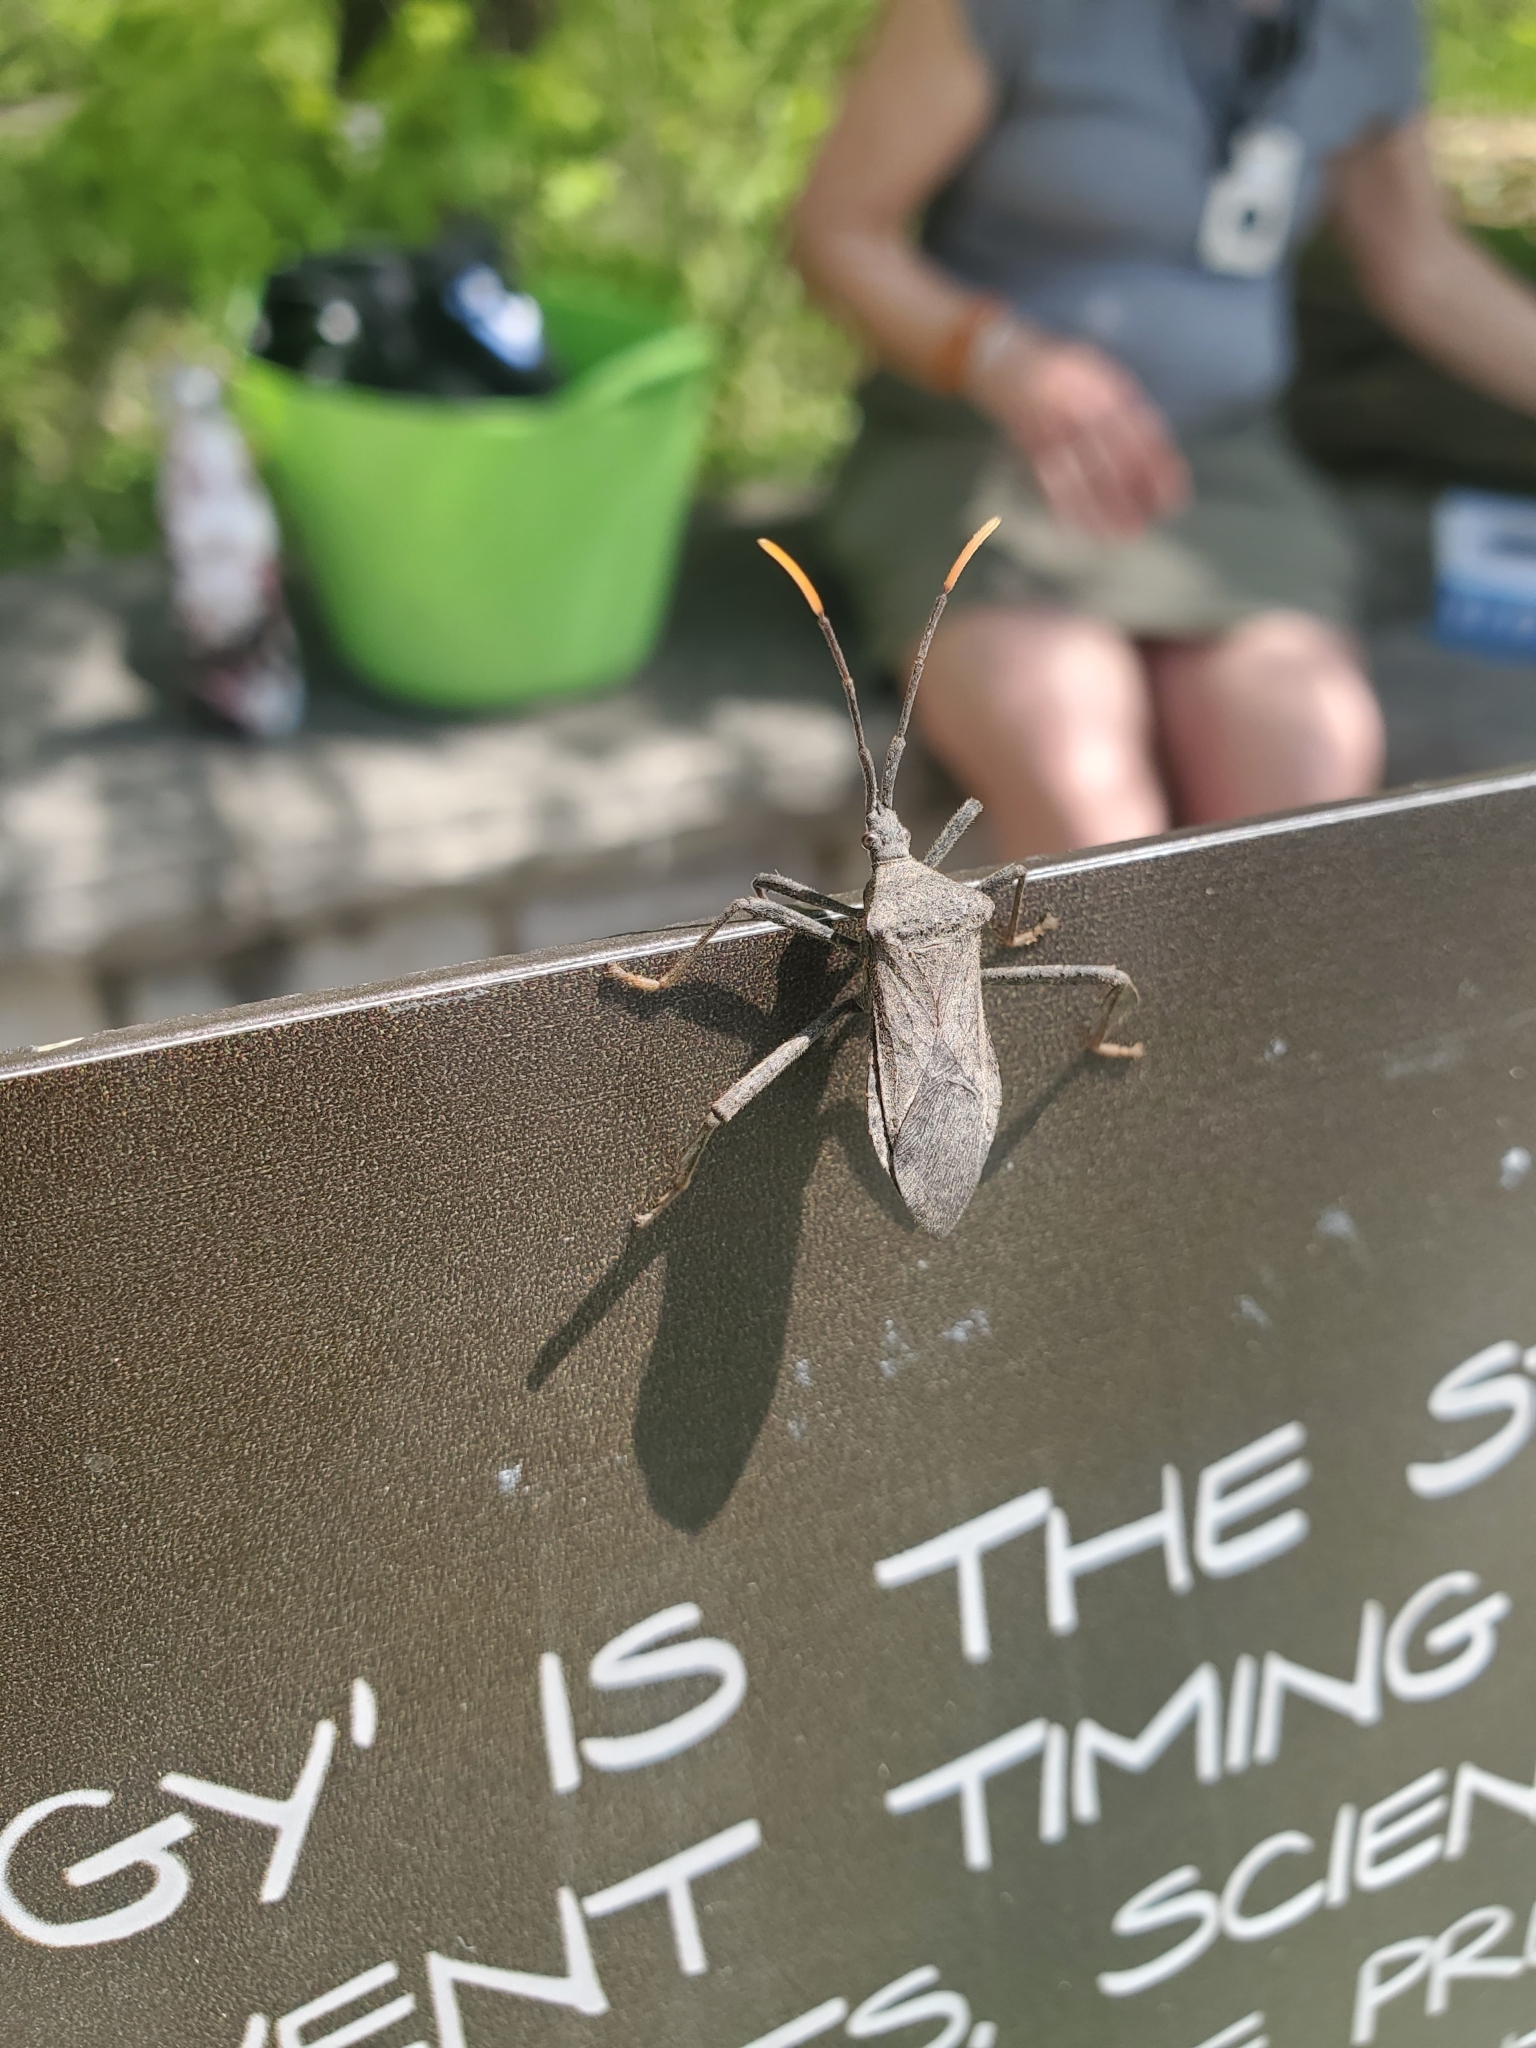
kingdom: Animalia
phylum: Arthropoda
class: Insecta
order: Hemiptera
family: Coreidae
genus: Acanthocephala
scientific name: Acanthocephala terminalis
